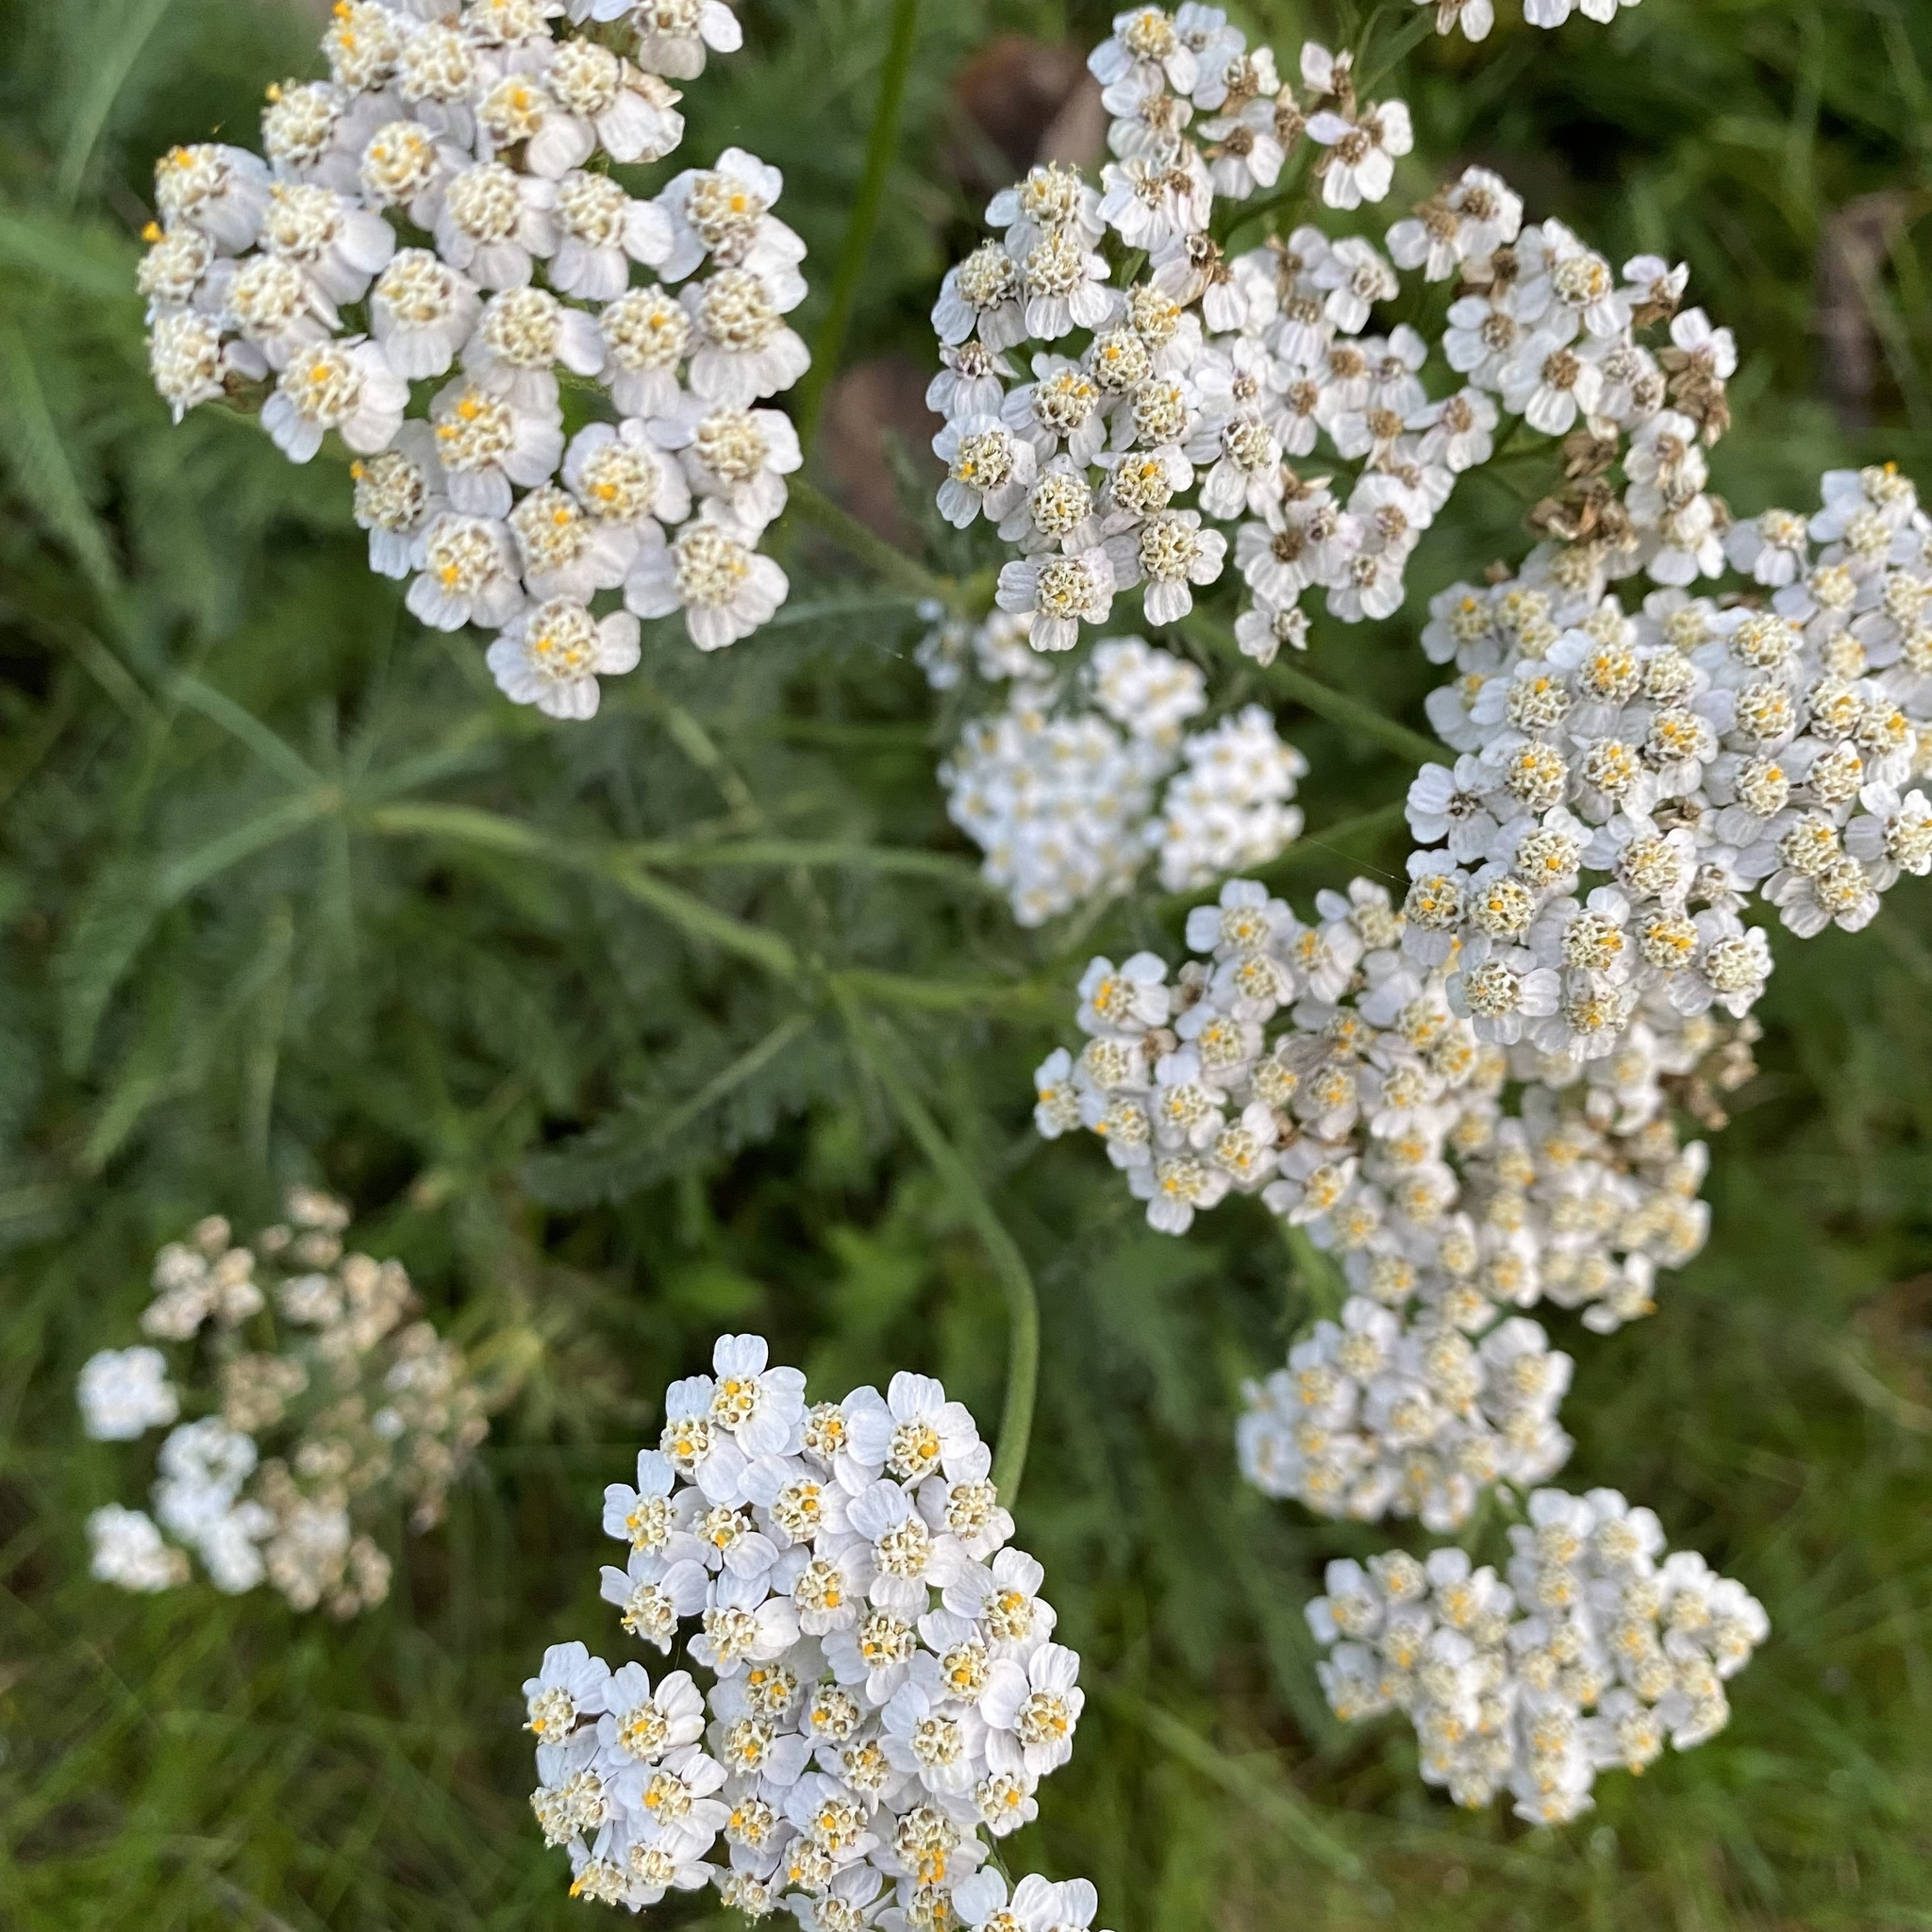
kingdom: Plantae
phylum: Tracheophyta
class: Magnoliopsida
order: Asterales
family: Asteraceae
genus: Achillea
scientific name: Achillea millefolium
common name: Yarrow
